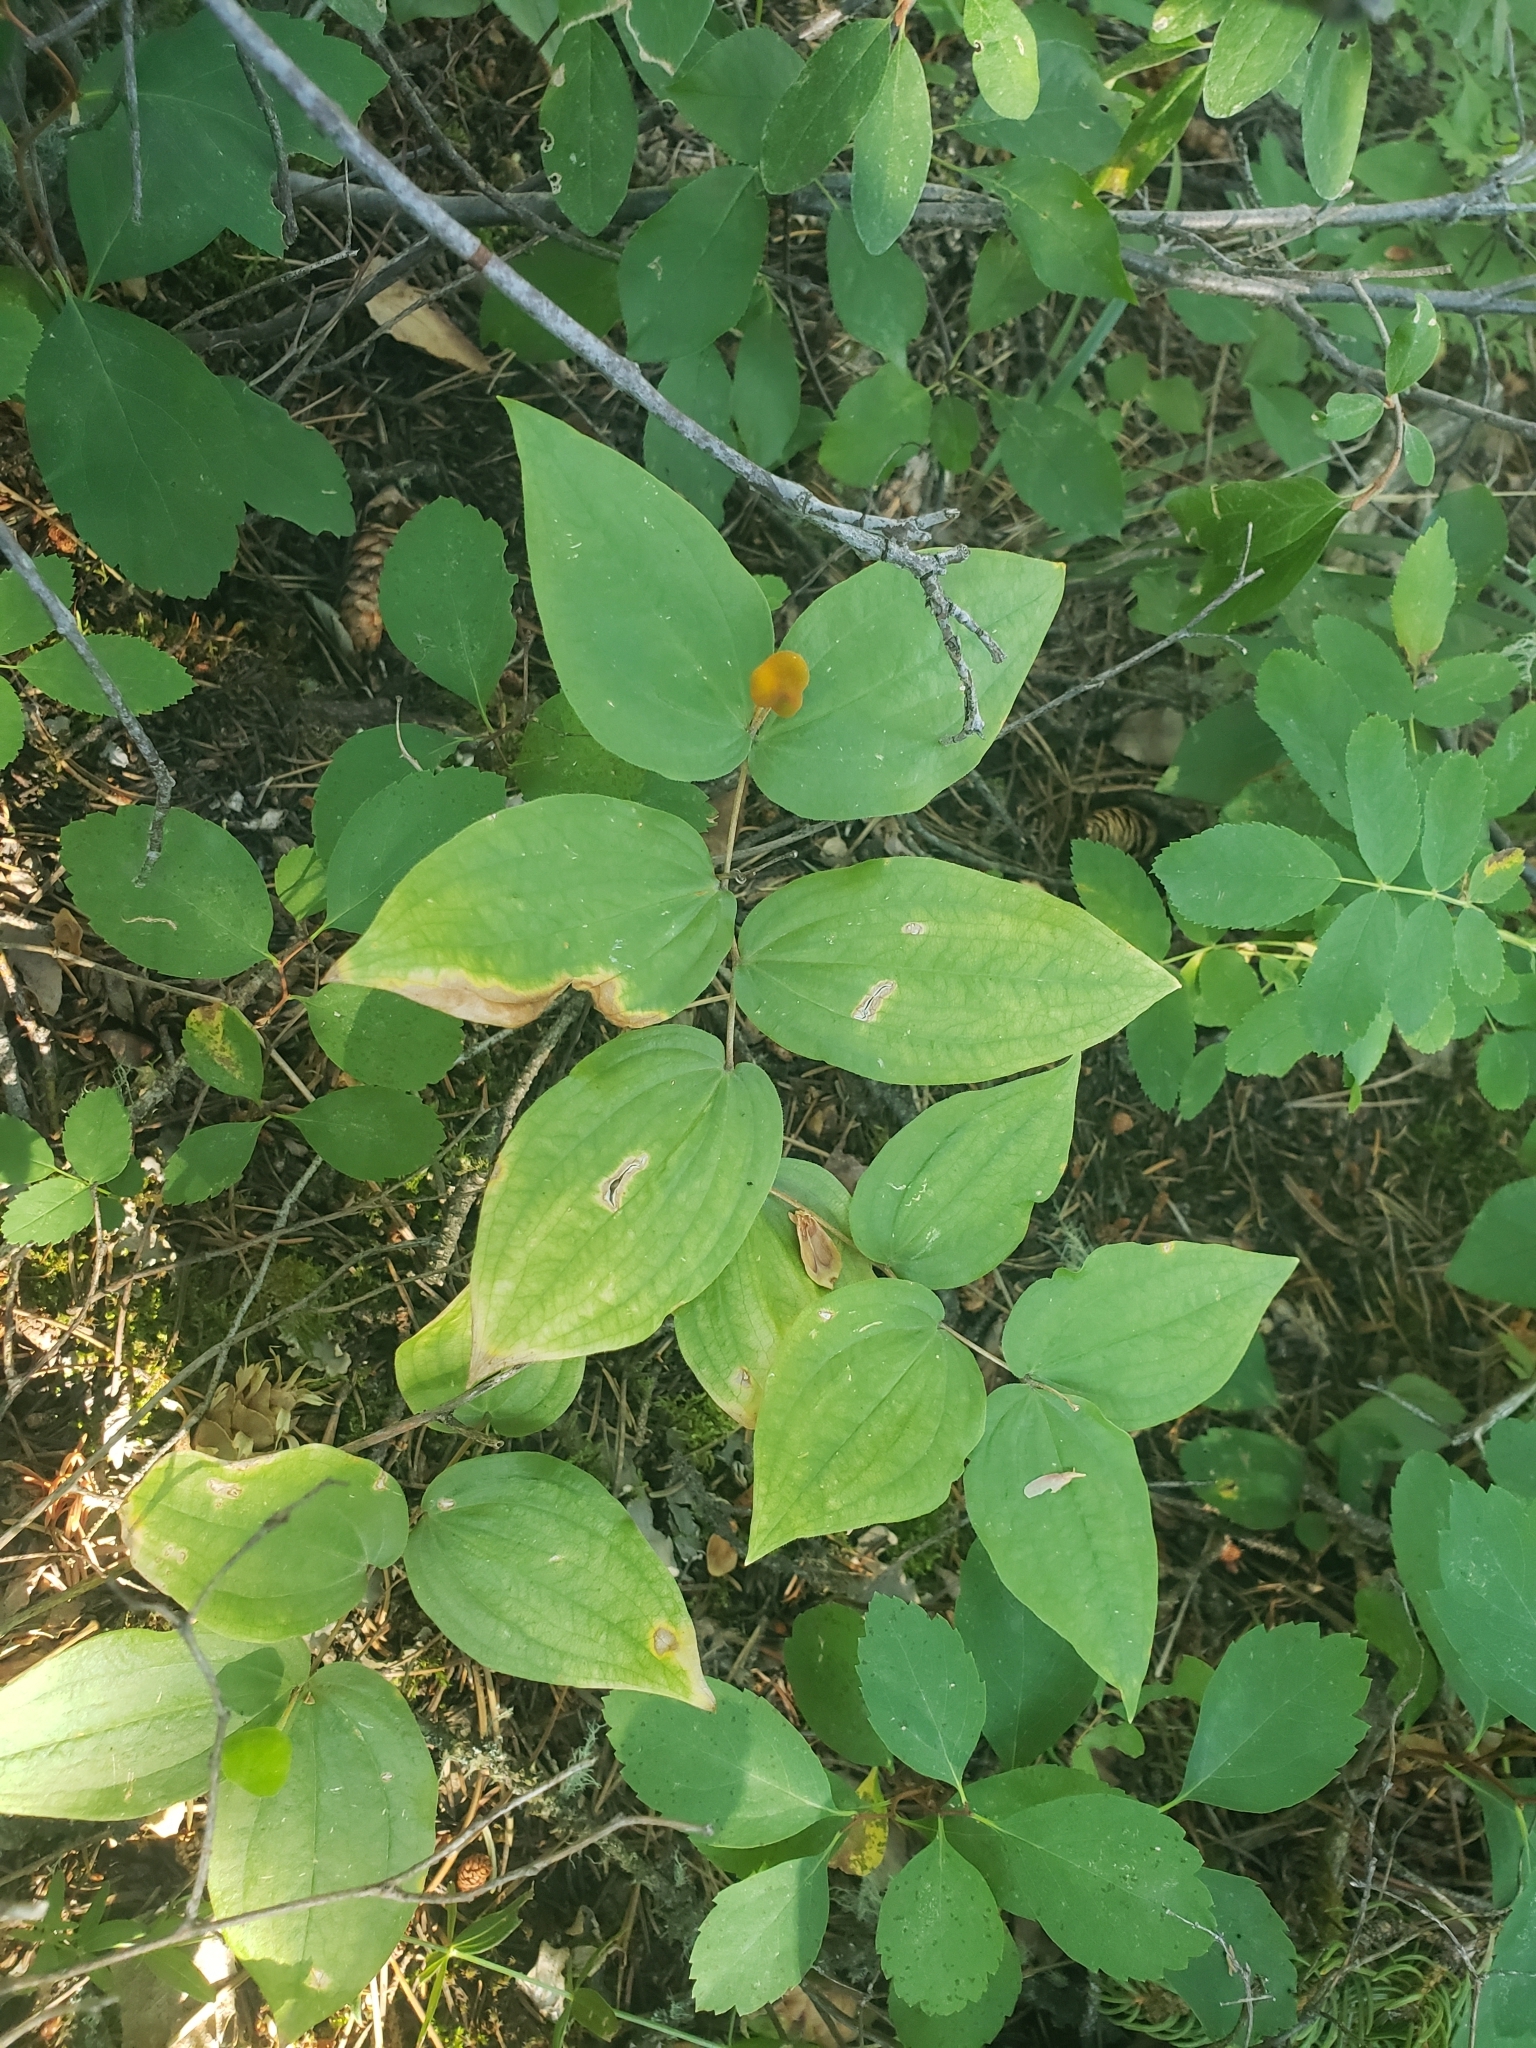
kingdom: Plantae
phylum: Tracheophyta
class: Liliopsida
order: Liliales
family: Liliaceae
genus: Prosartes
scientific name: Prosartes trachycarpa
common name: Rough-fruit fairy-bells
